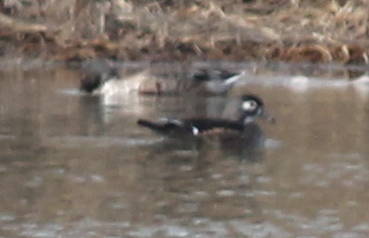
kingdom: Animalia
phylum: Chordata
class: Aves
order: Anseriformes
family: Anatidae
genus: Aix
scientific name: Aix sponsa
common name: Wood duck
